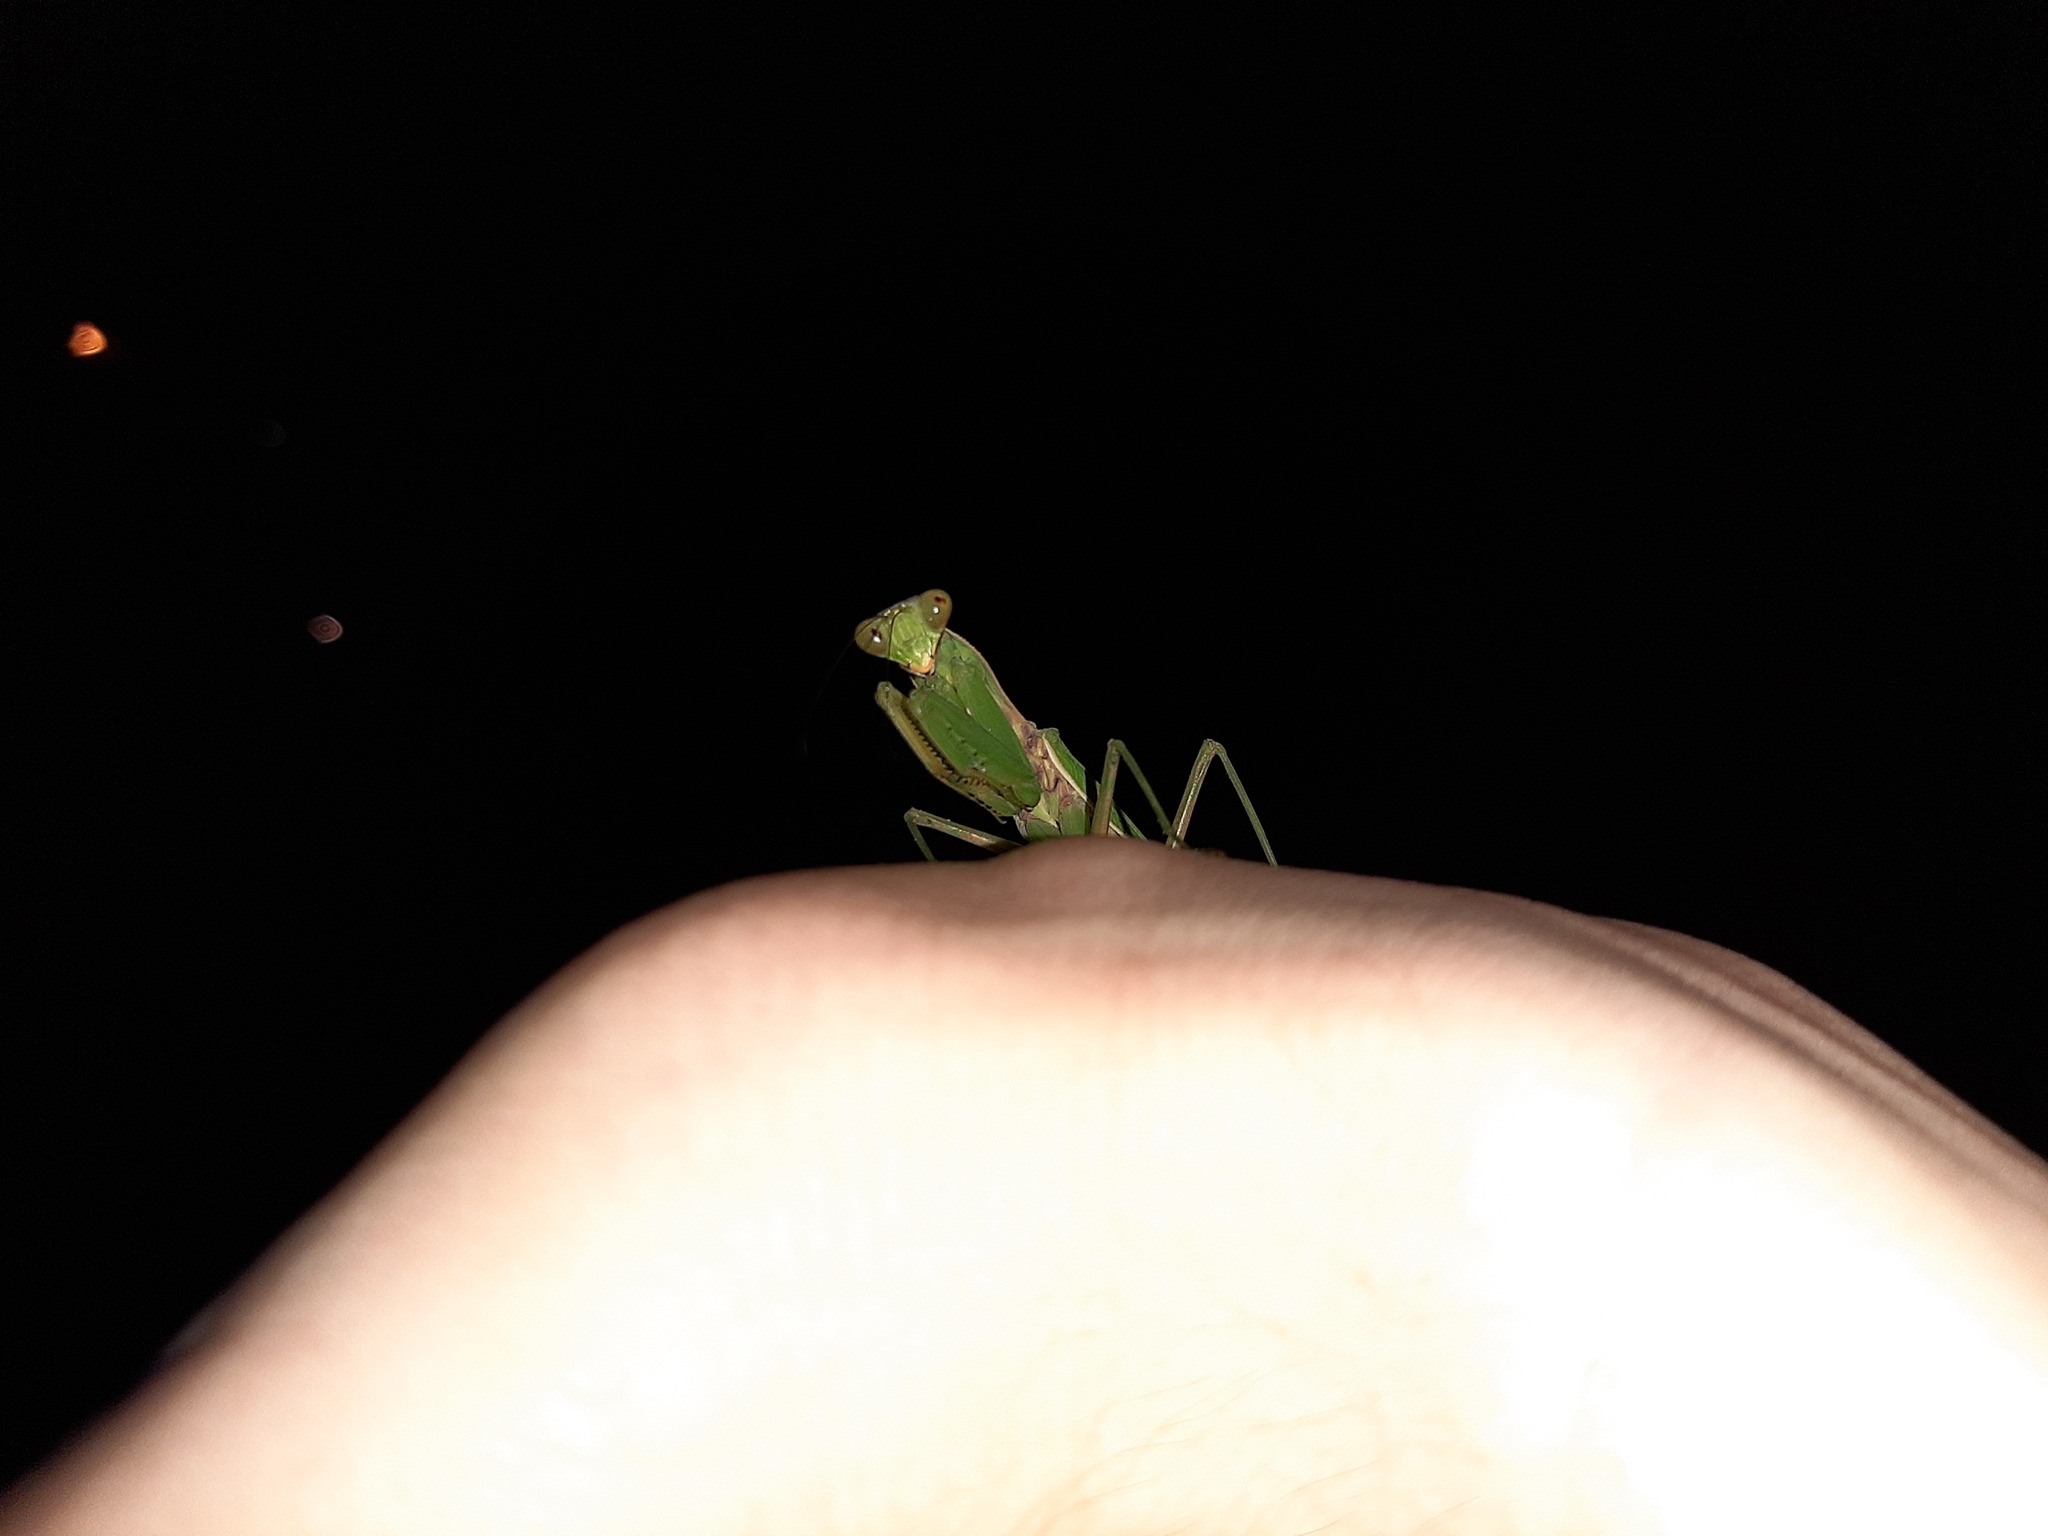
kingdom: Animalia
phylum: Arthropoda
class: Insecta
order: Mantodea
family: Mantidae
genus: Hierodula
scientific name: Hierodula patellifera
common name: Asian mantis
